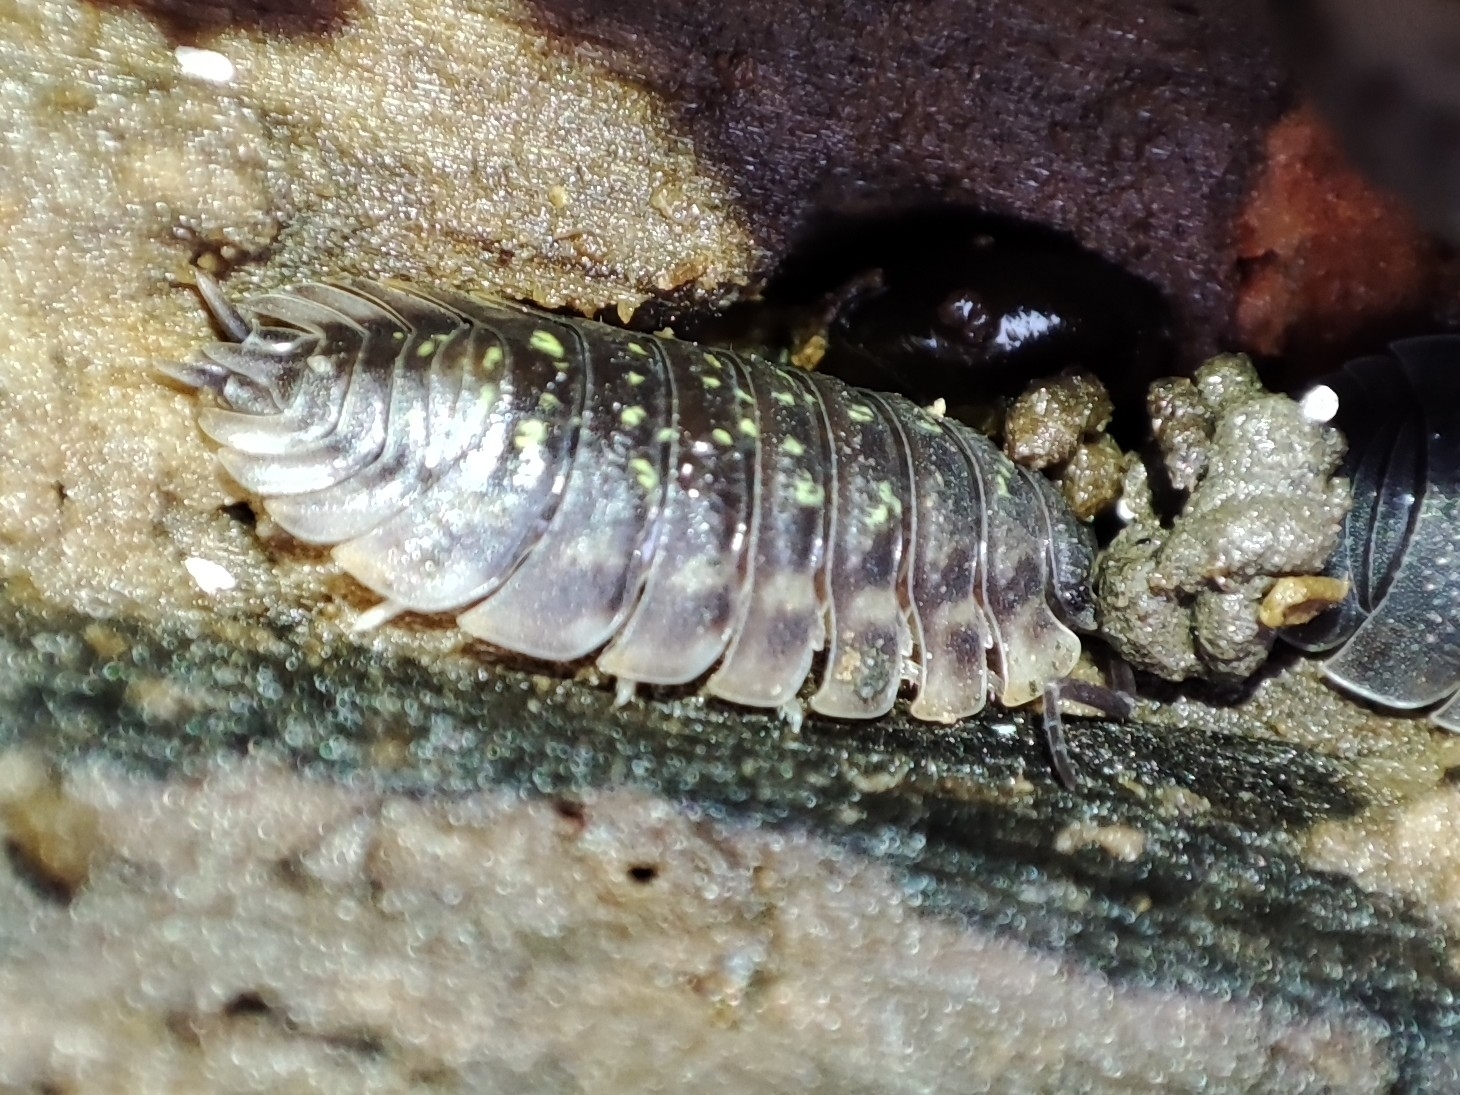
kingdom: Animalia
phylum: Arthropoda
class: Malacostraca
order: Isopoda
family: Oniscidae
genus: Oniscus
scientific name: Oniscus asellus
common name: Common shiny woodlouse
